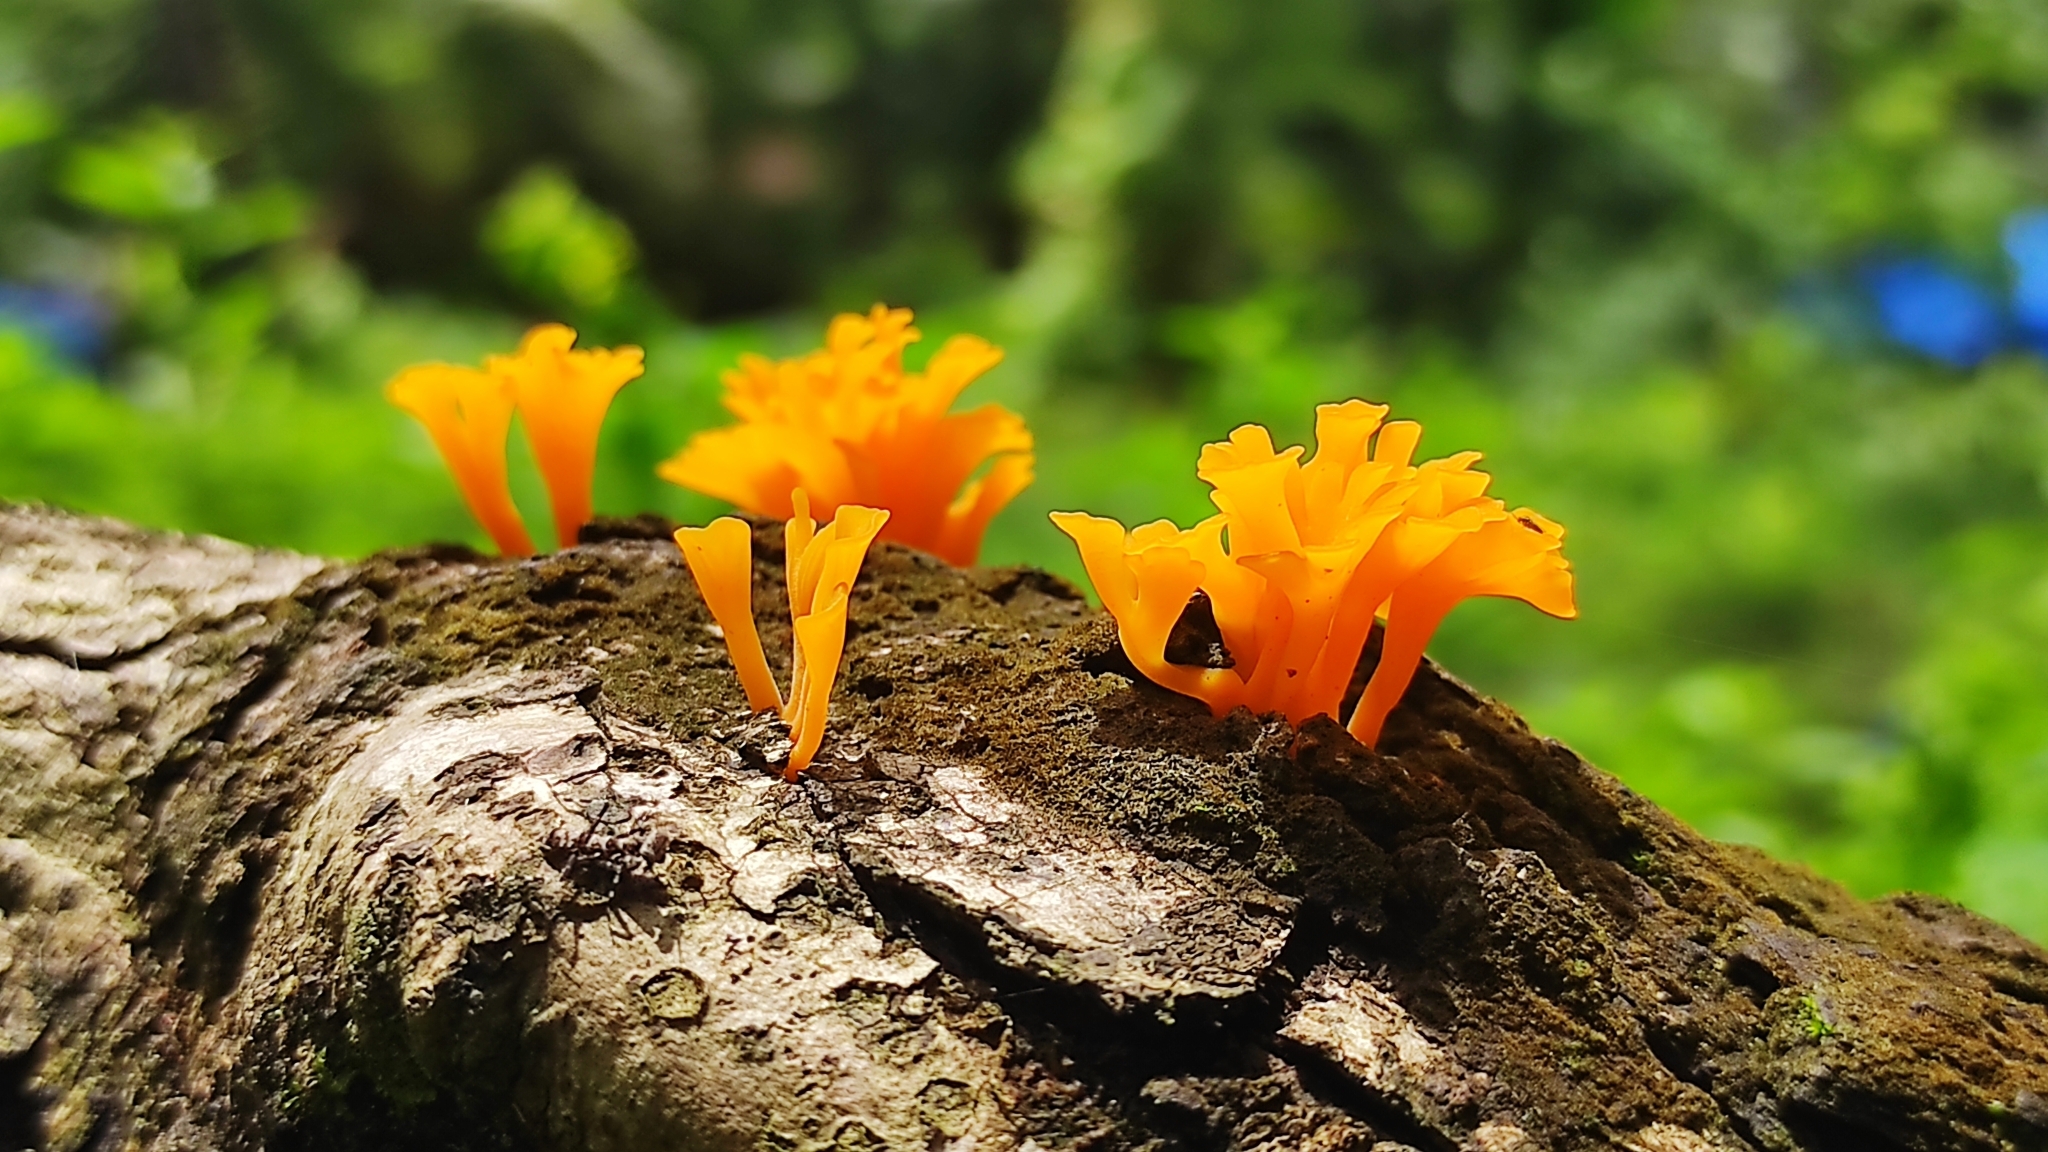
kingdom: Fungi
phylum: Basidiomycota
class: Dacrymycetes
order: Dacrymycetales
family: Dacrymycetaceae
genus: Dacrymyces
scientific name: Dacrymyces spathularius
